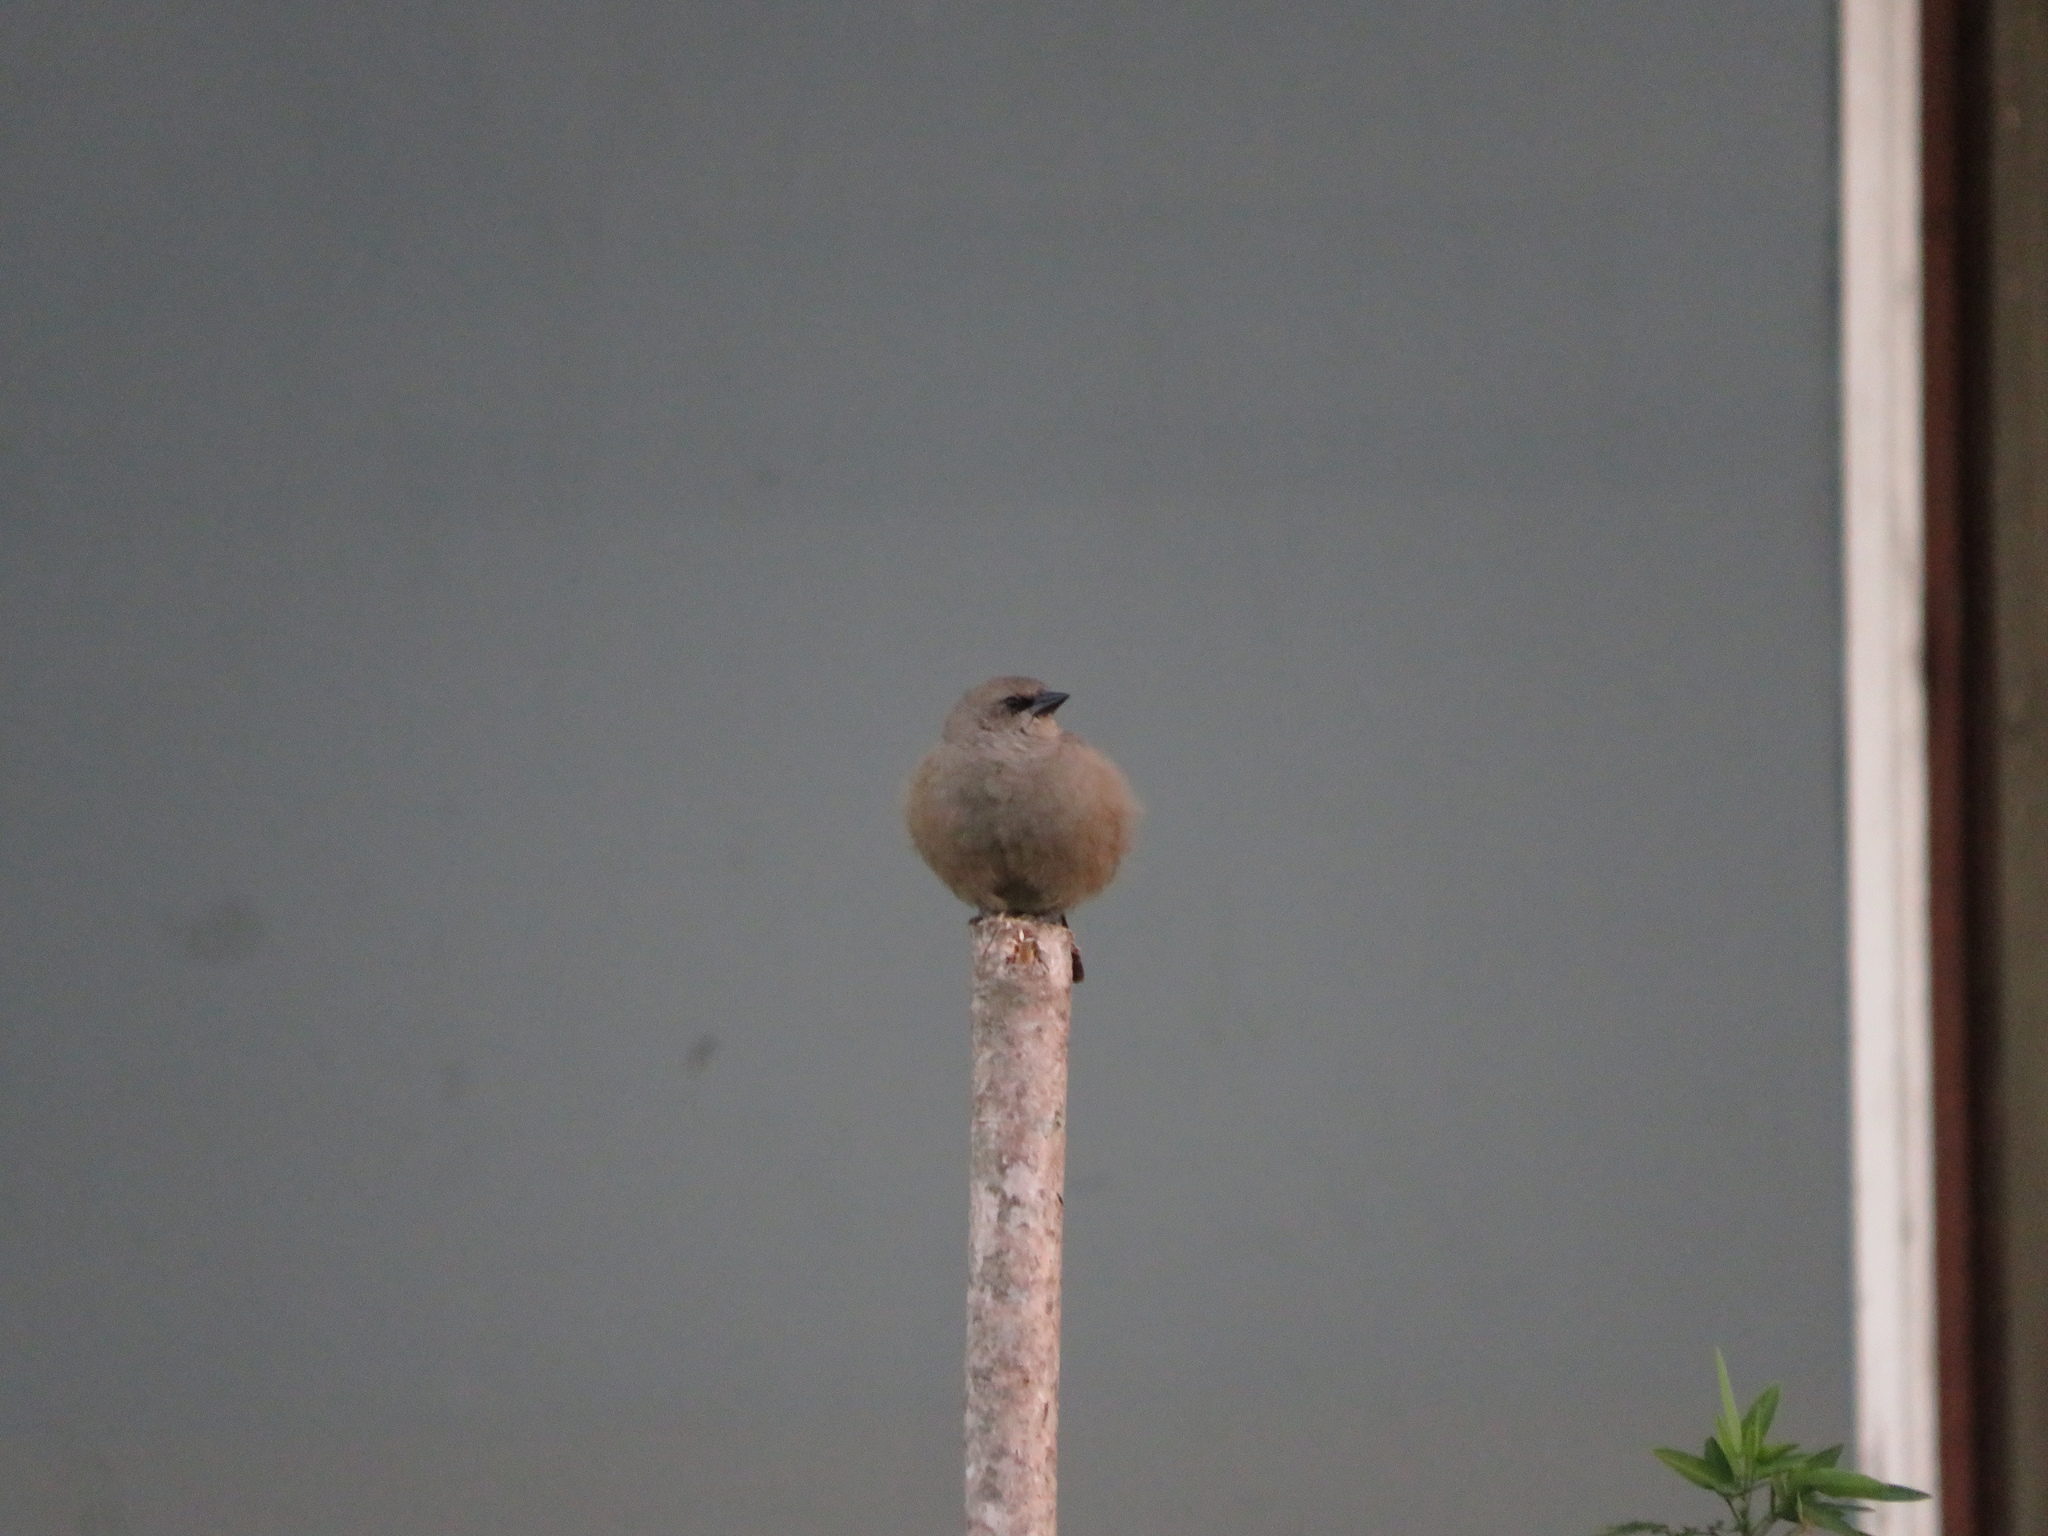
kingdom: Animalia
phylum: Chordata
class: Aves
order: Passeriformes
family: Icteridae
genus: Agelaioides
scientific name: Agelaioides badius
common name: Baywing
